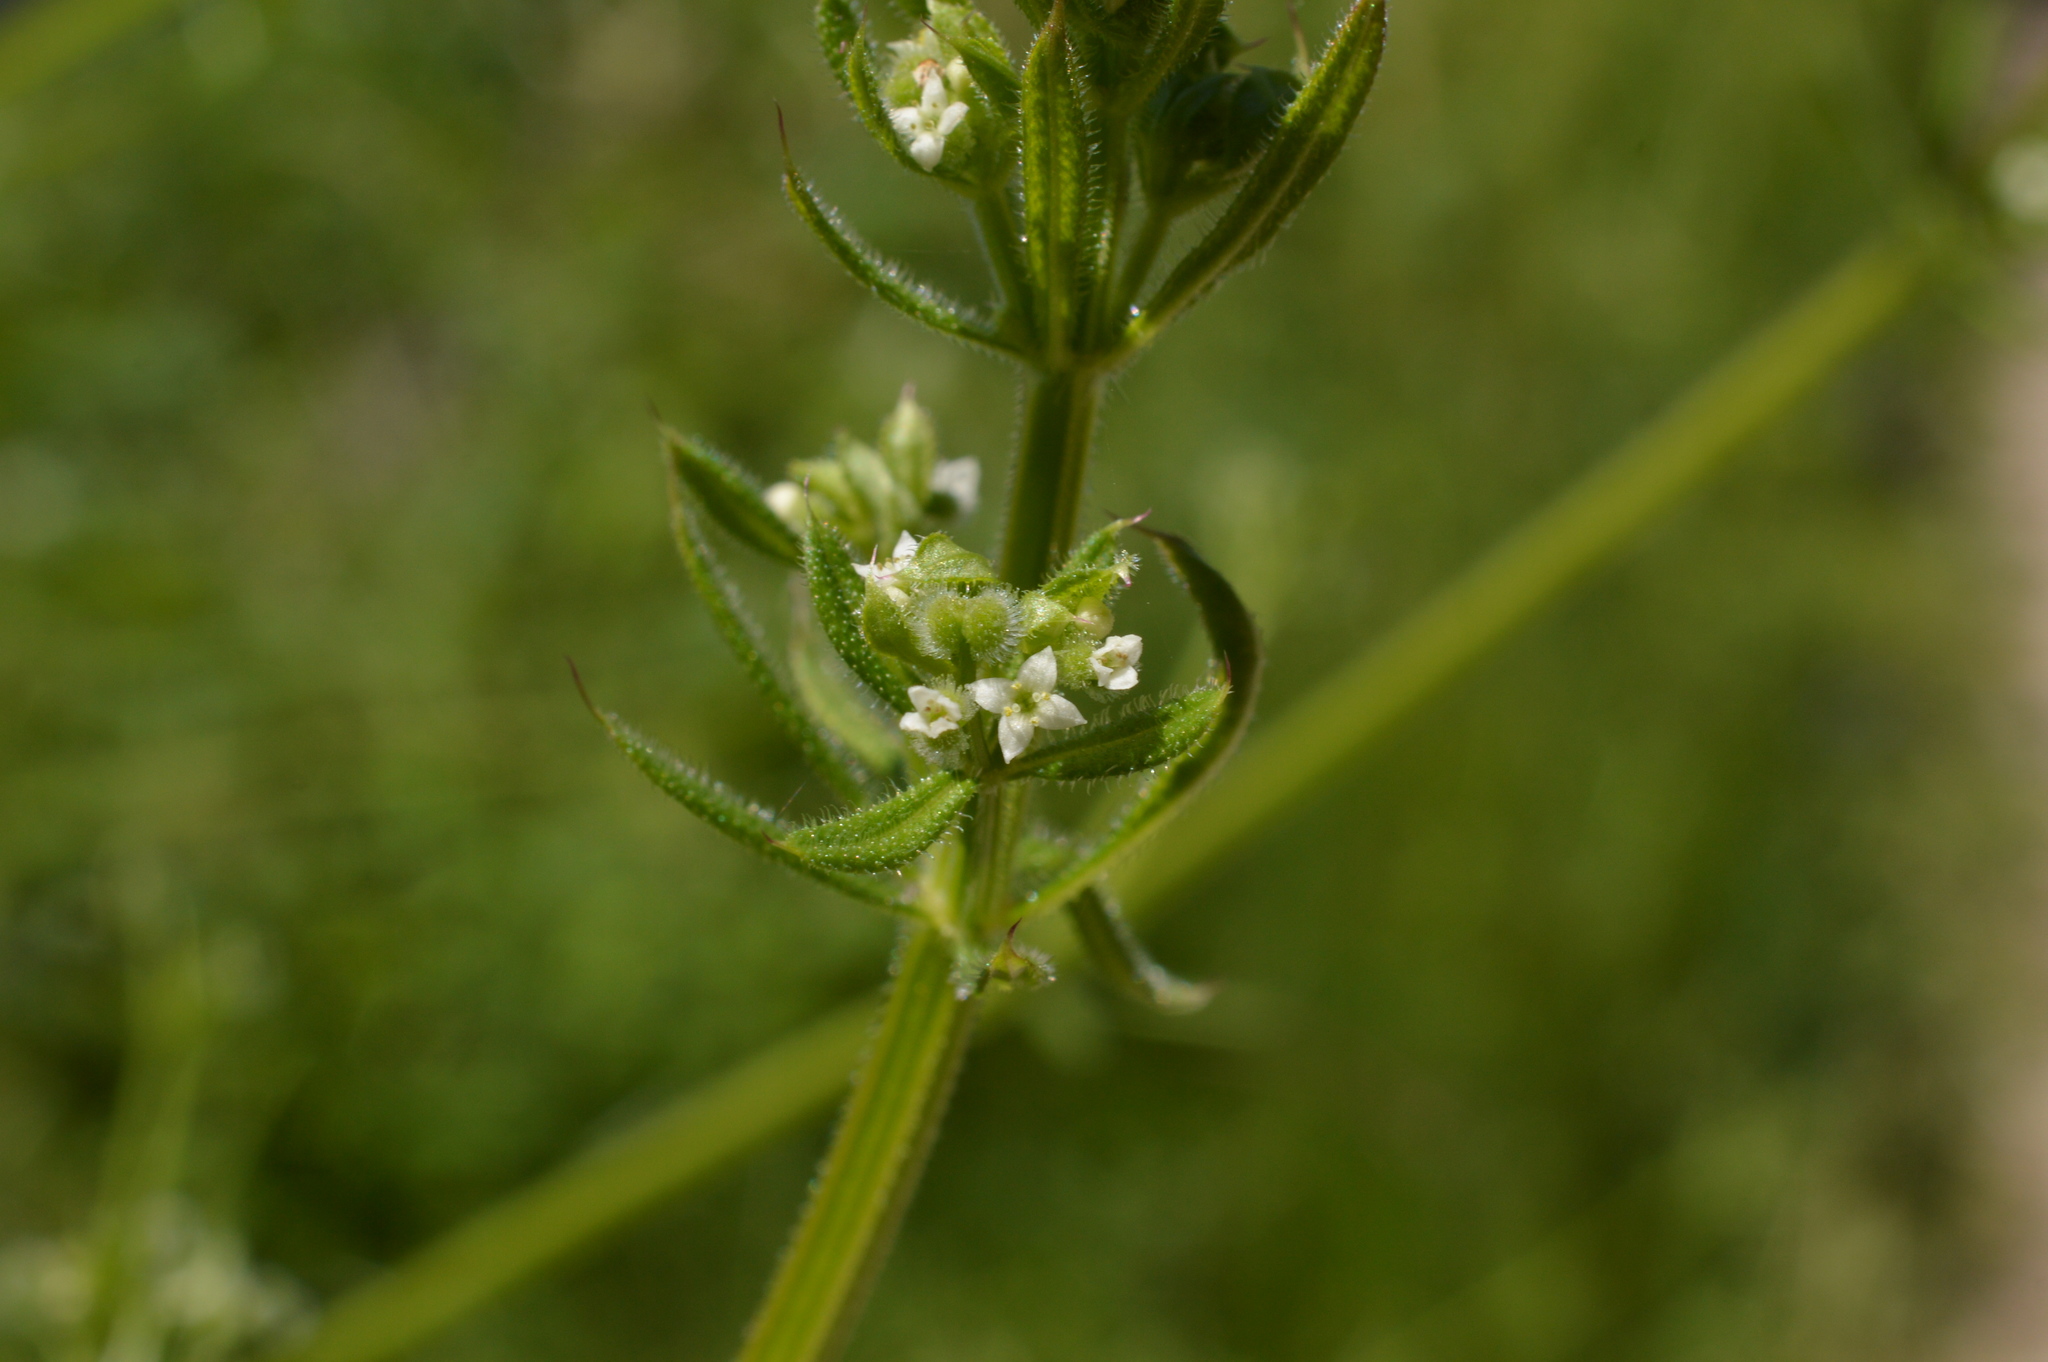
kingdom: Plantae
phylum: Tracheophyta
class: Magnoliopsida
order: Gentianales
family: Rubiaceae
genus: Galium
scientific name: Galium aparine
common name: Cleavers
